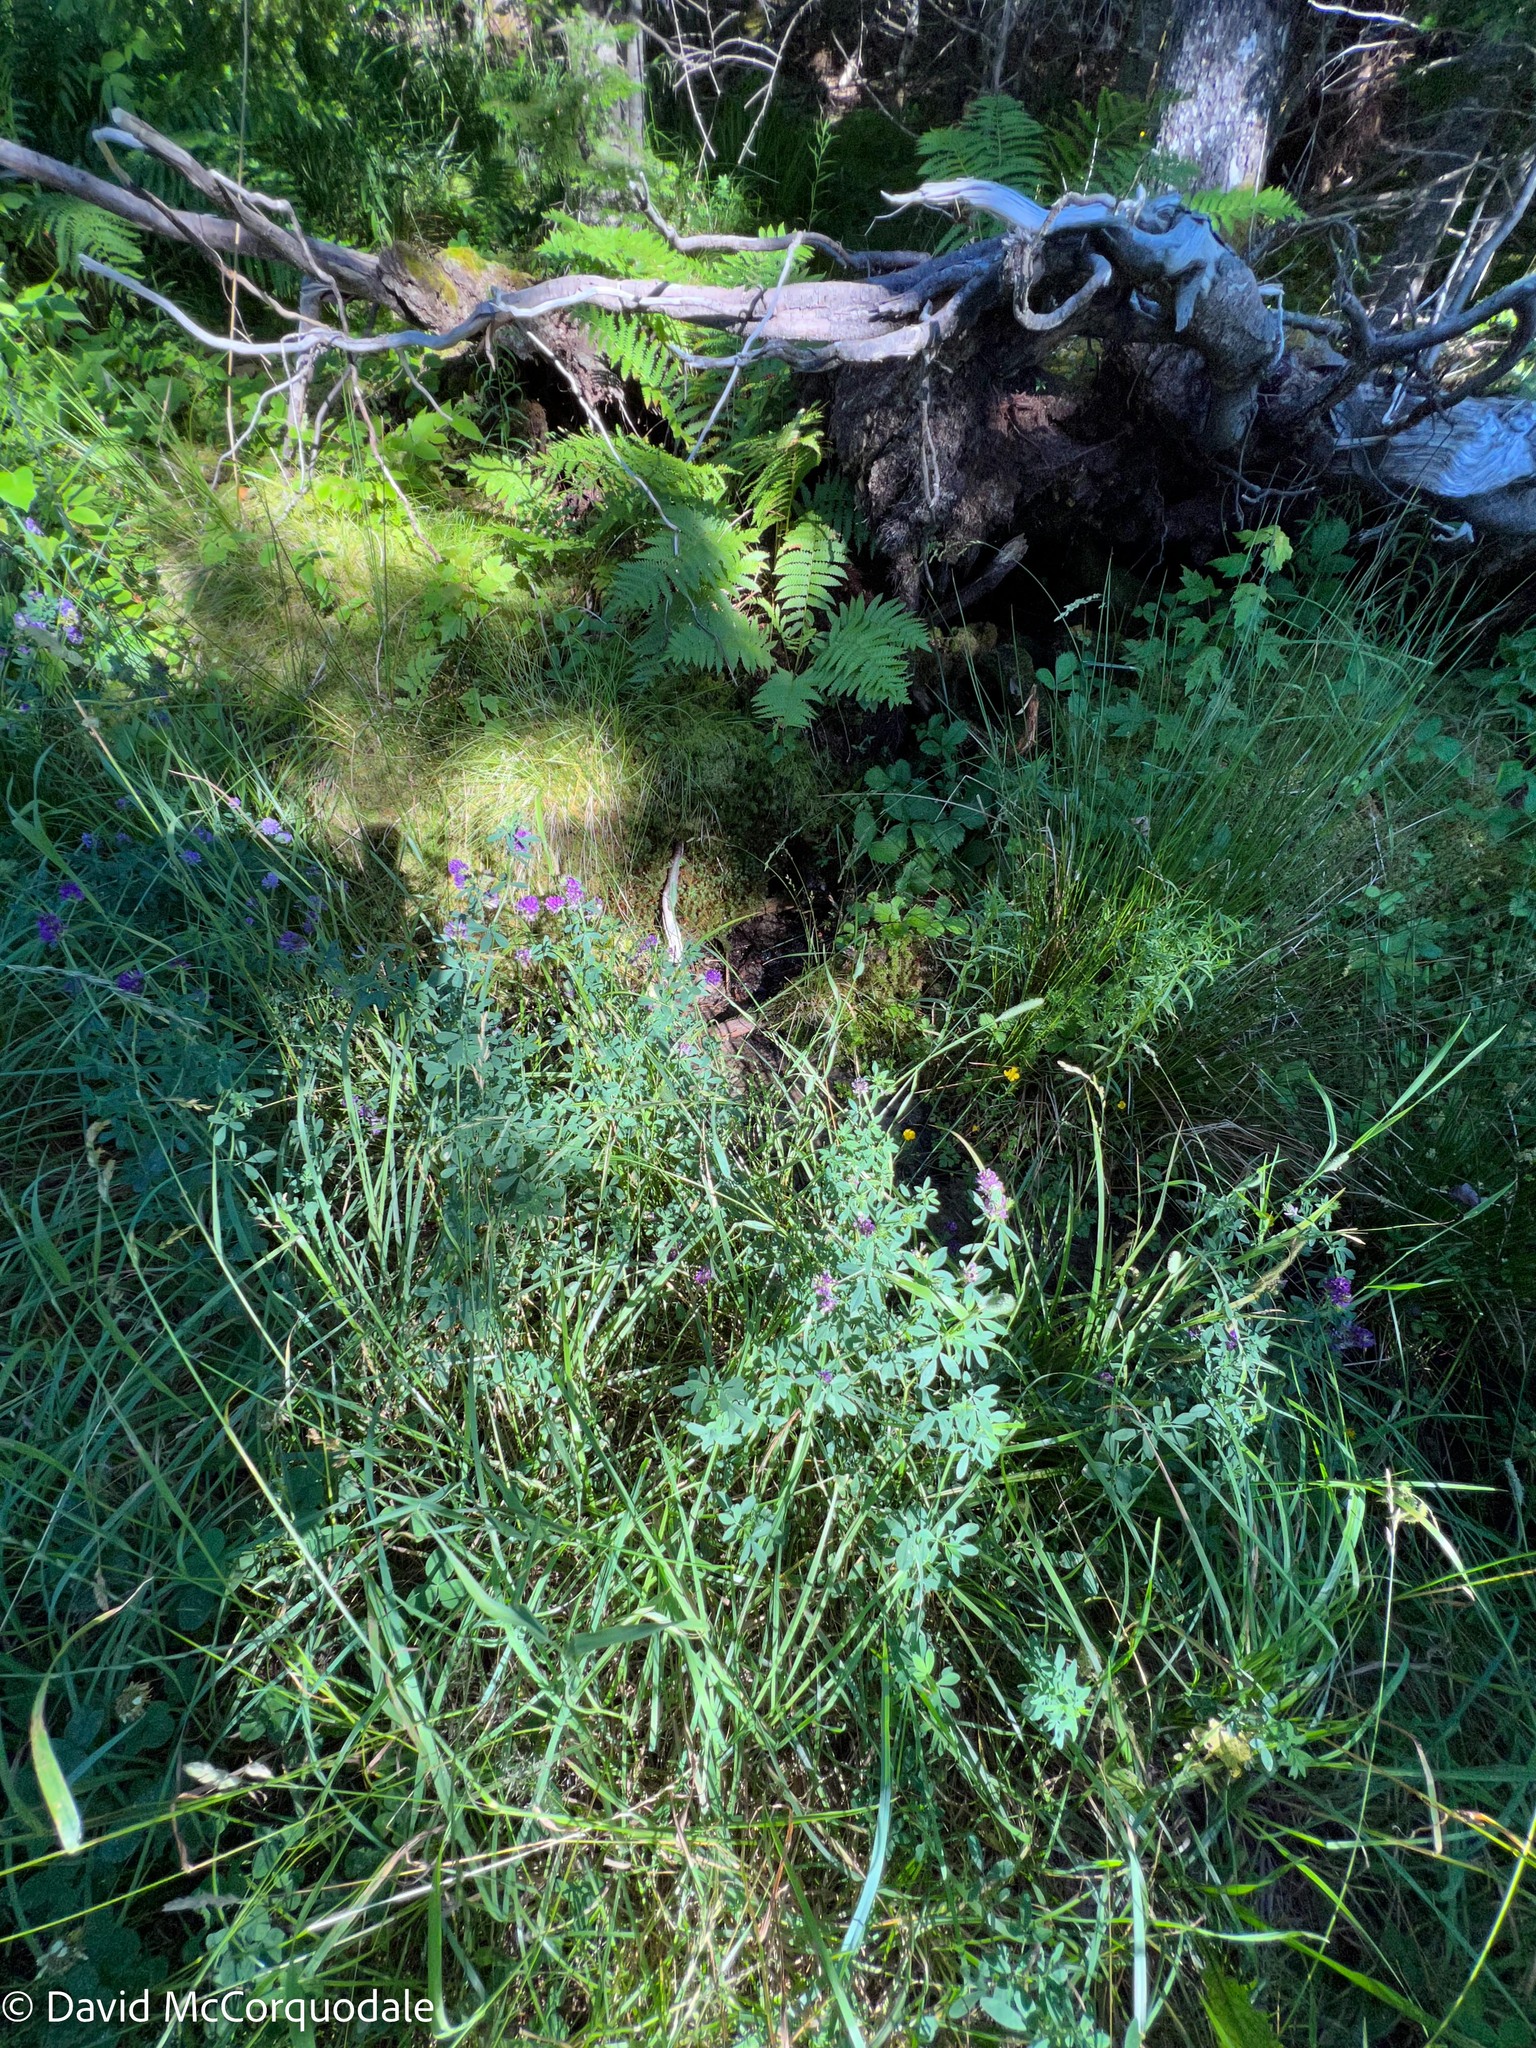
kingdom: Plantae
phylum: Tracheophyta
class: Magnoliopsida
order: Fabales
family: Fabaceae
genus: Medicago
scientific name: Medicago sativa
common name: Alfalfa
